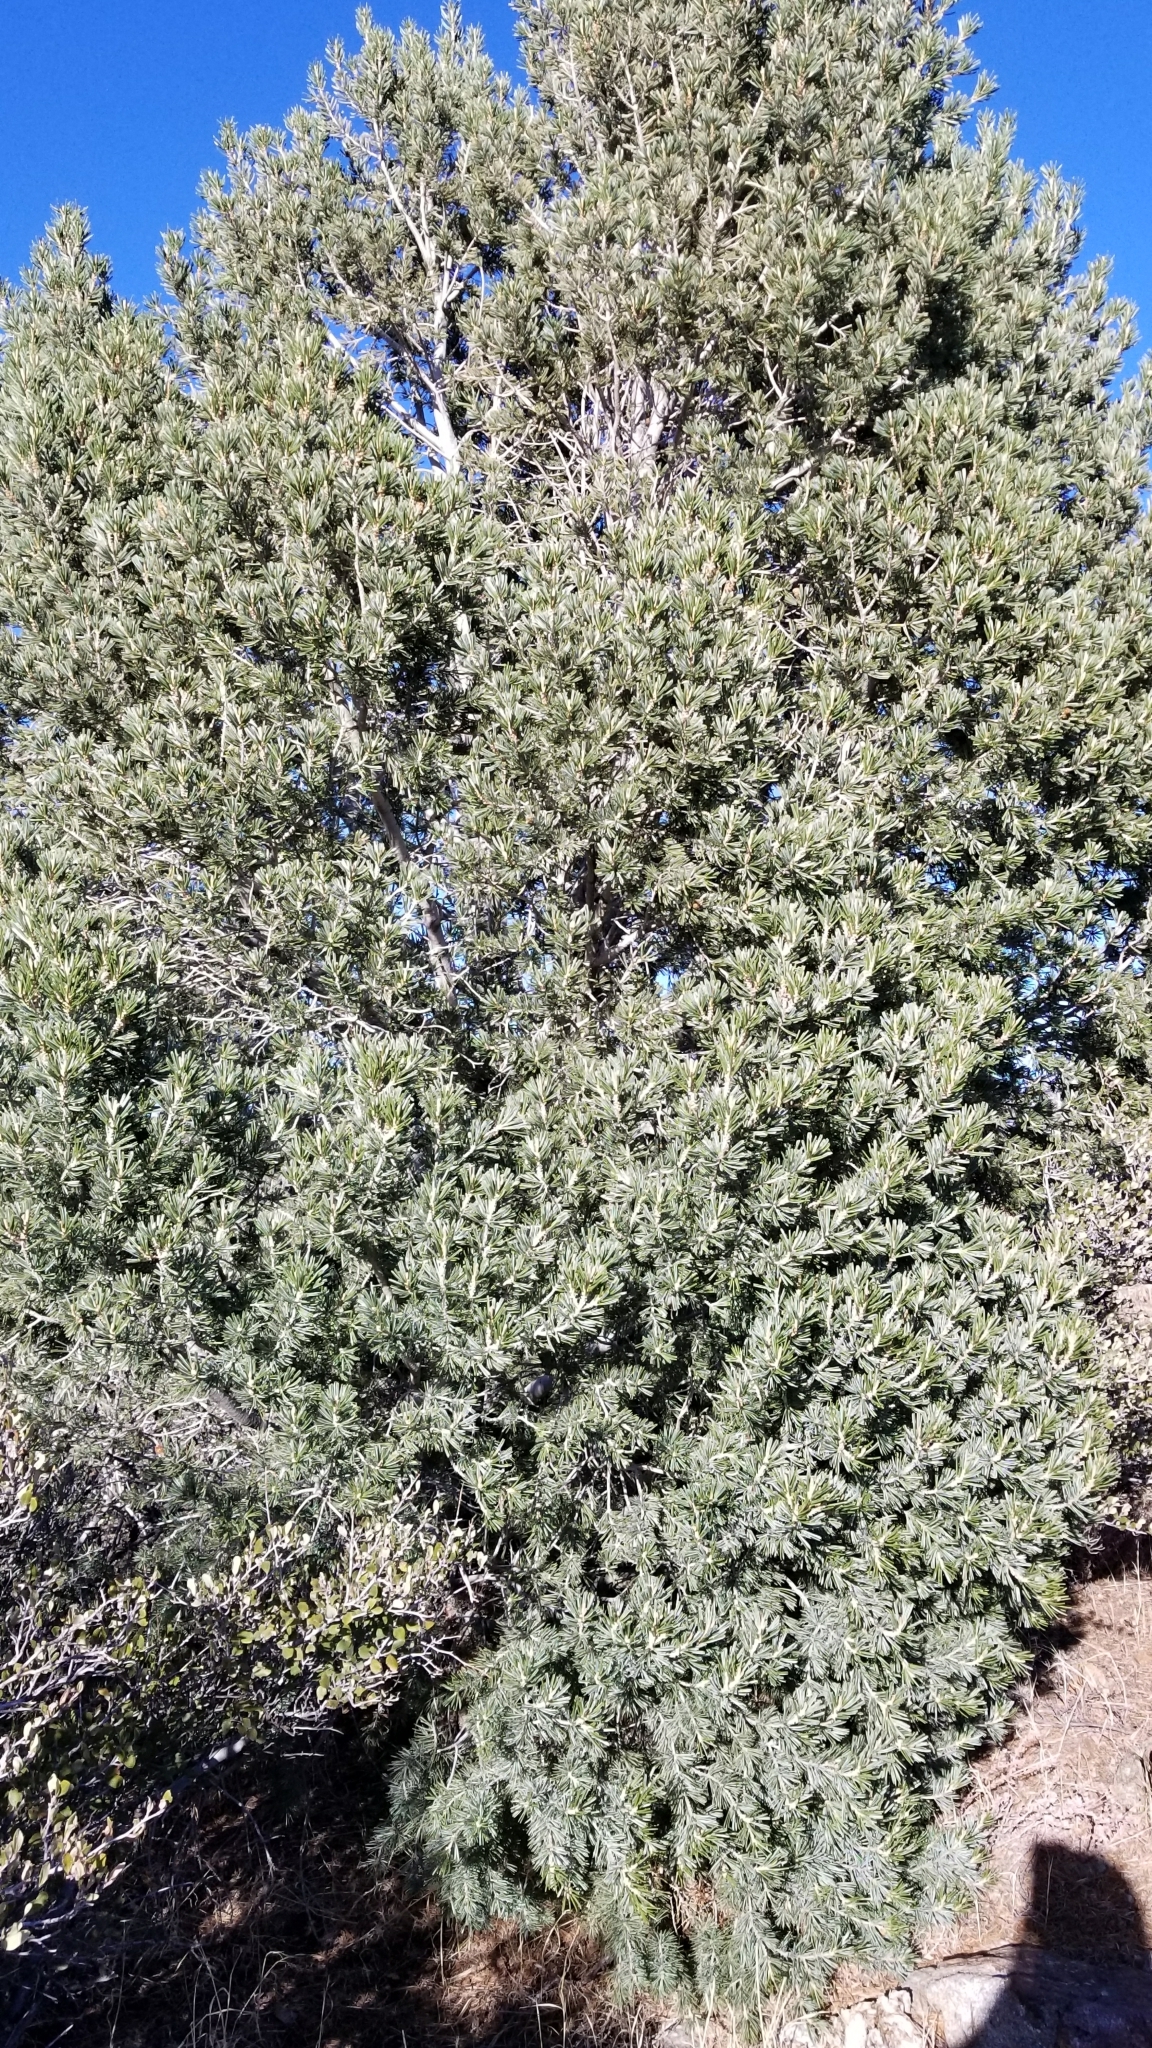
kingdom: Plantae
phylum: Tracheophyta
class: Pinopsida
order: Pinales
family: Pinaceae
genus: Pinus
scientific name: Pinus quadrifolia
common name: Parry pinyon
